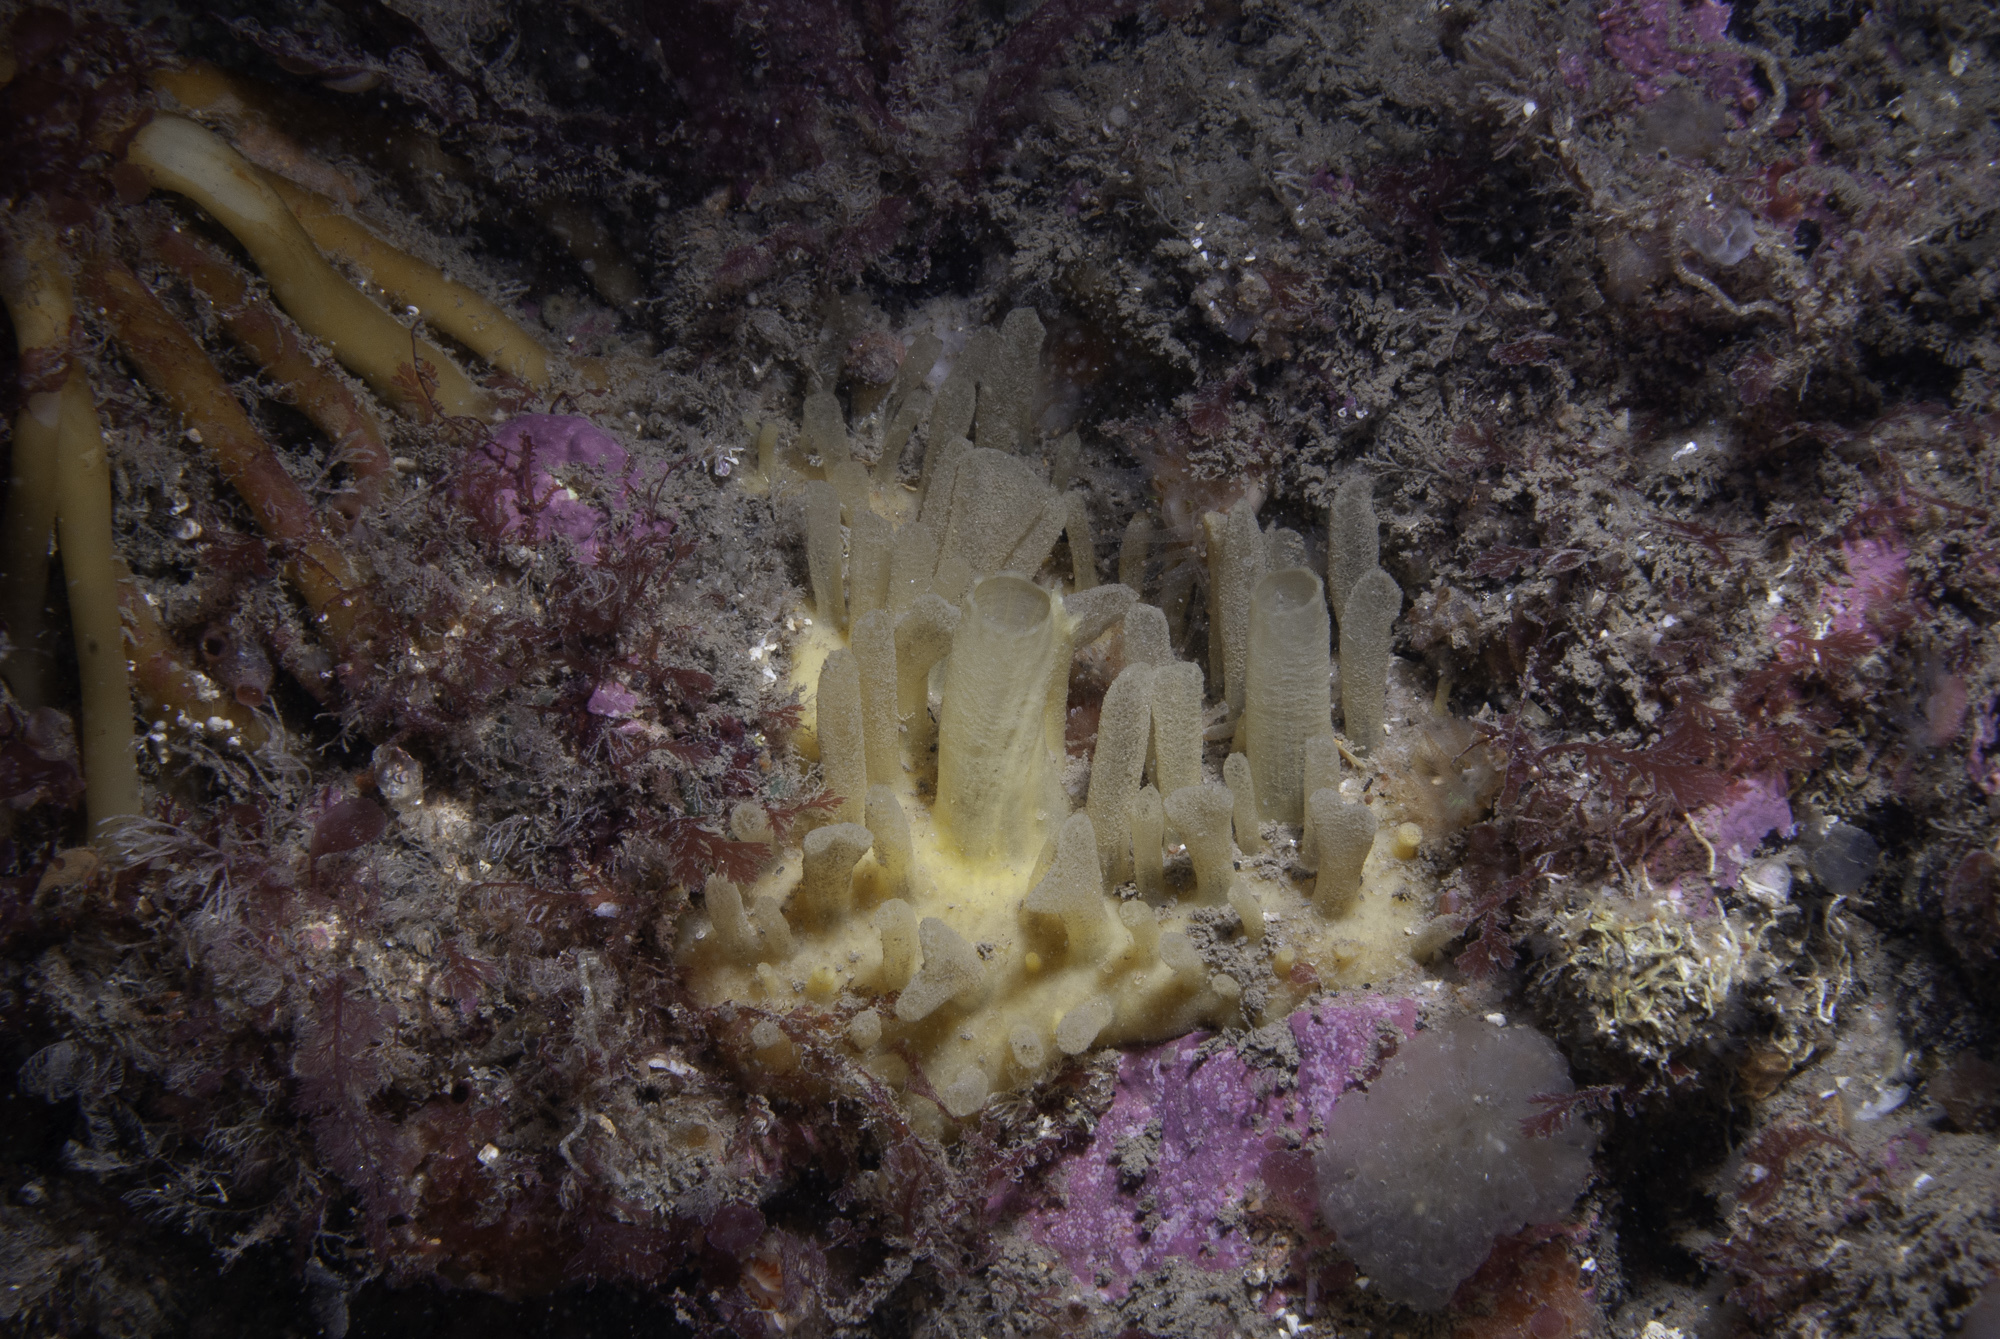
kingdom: Animalia
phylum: Porifera
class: Demospongiae
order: Polymastiida
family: Polymastiidae
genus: Polymastia
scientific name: Polymastia penicillus
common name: Chimney sponge
